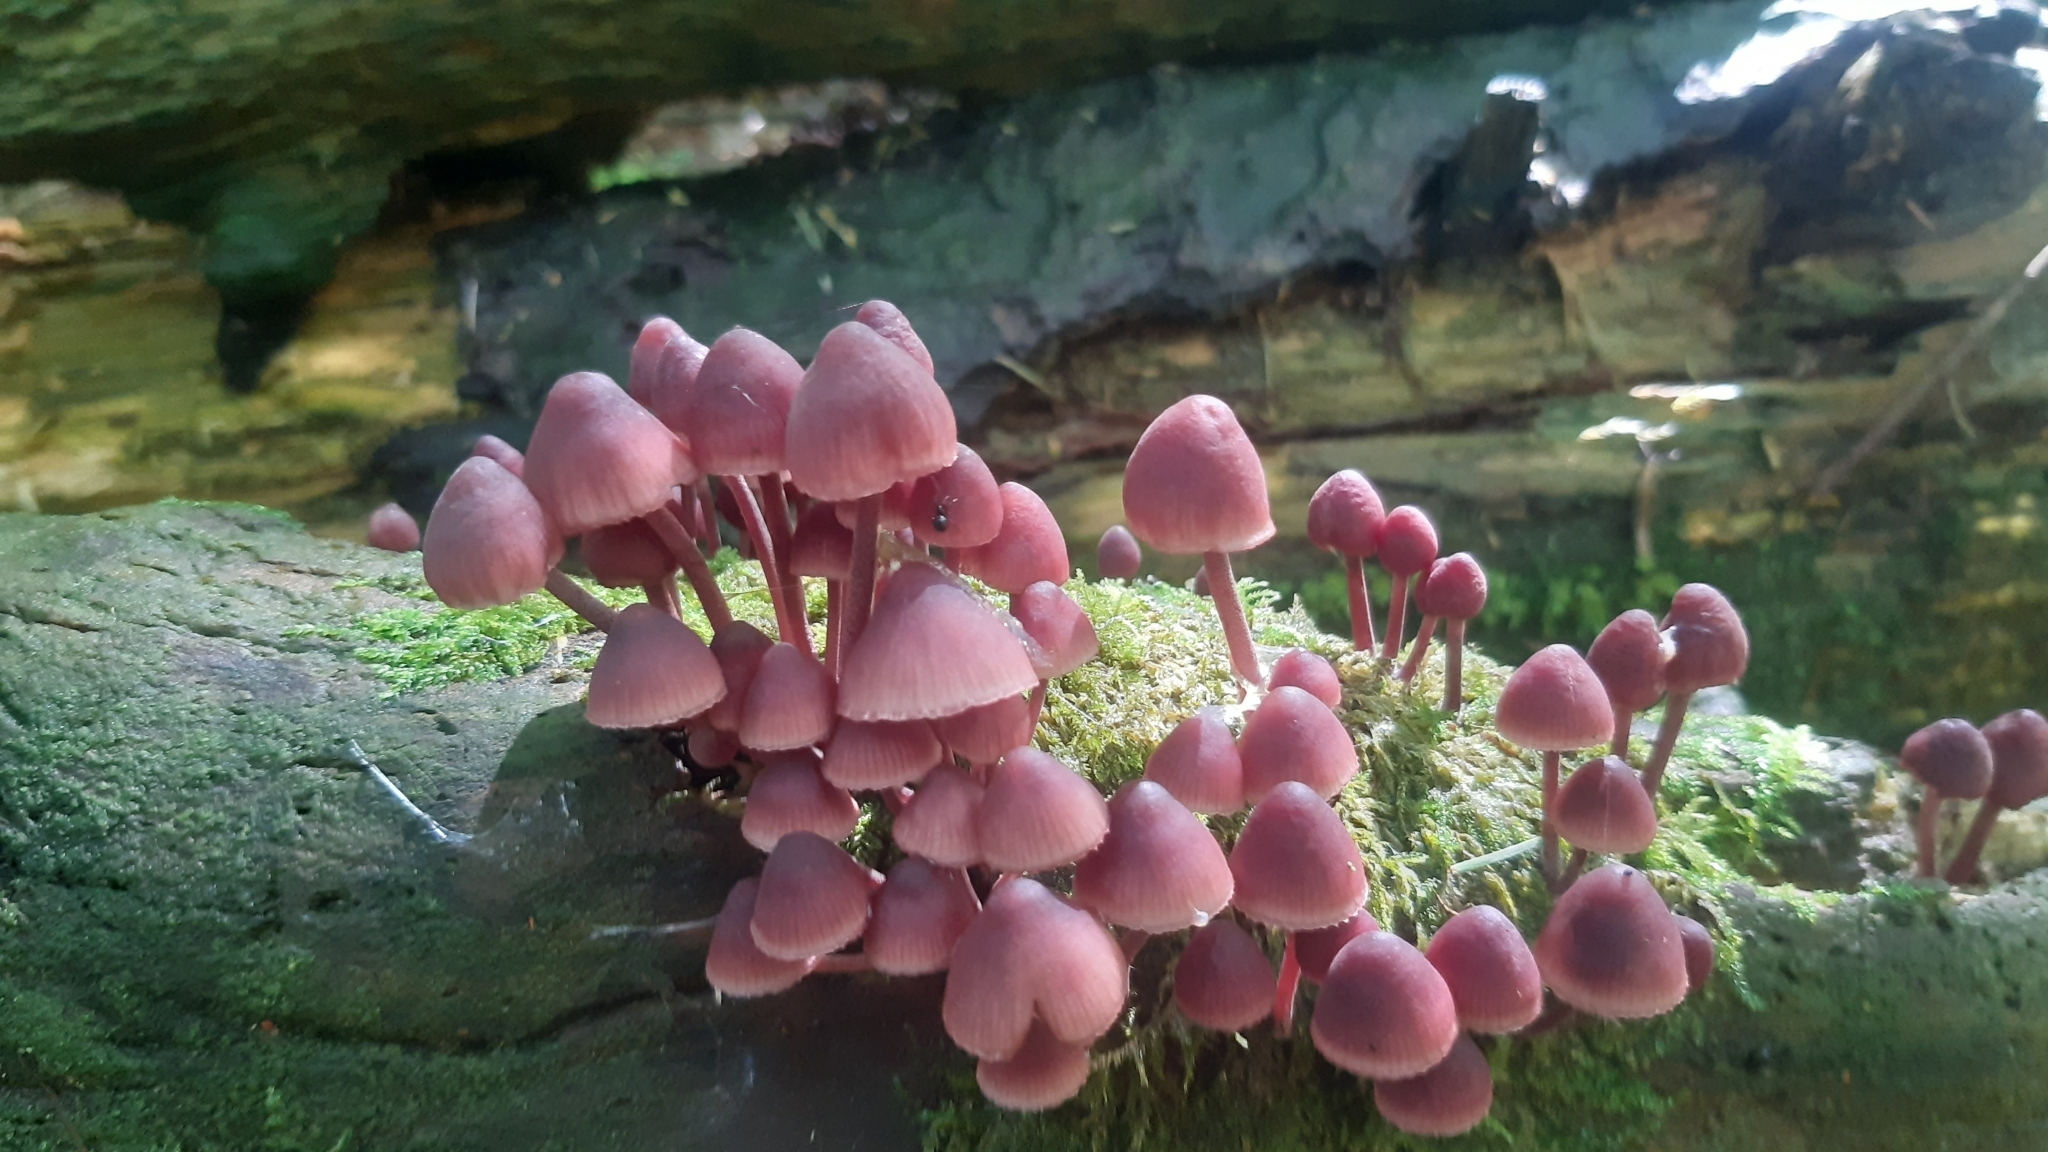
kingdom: Fungi
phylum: Basidiomycota
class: Agaricomycetes
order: Agaricales
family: Mycenaceae
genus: Mycena
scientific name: Mycena haematopus
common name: Burgundydrop bonnet
